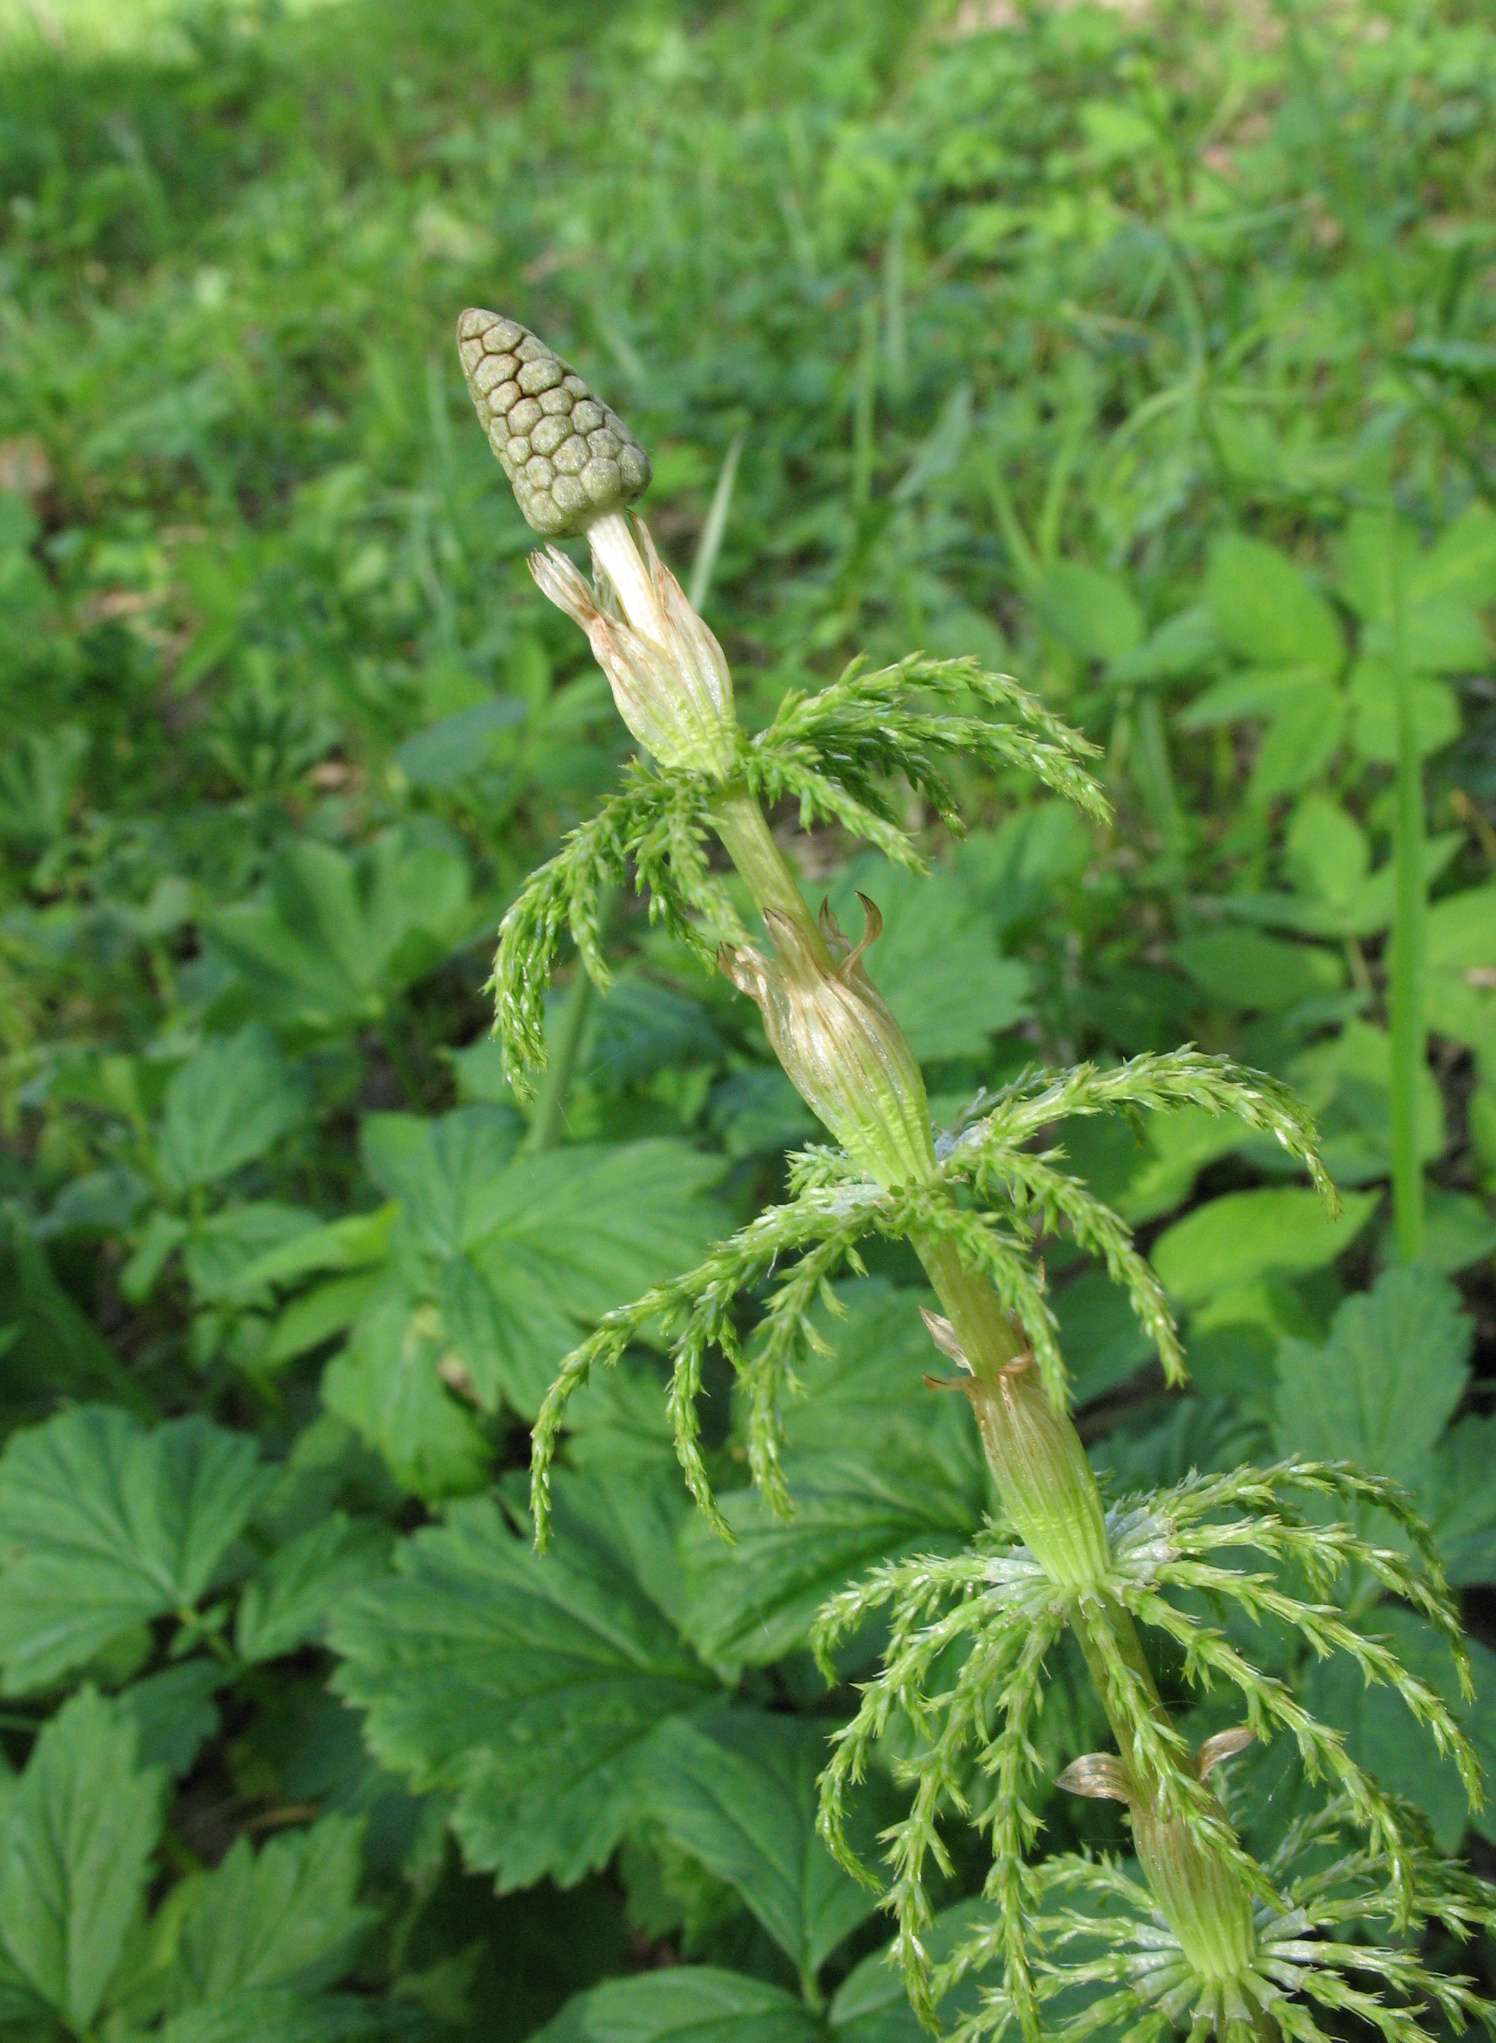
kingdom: Plantae
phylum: Tracheophyta
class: Polypodiopsida
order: Equisetales
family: Equisetaceae
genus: Equisetum
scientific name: Equisetum sylvaticum
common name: Wood horsetail
